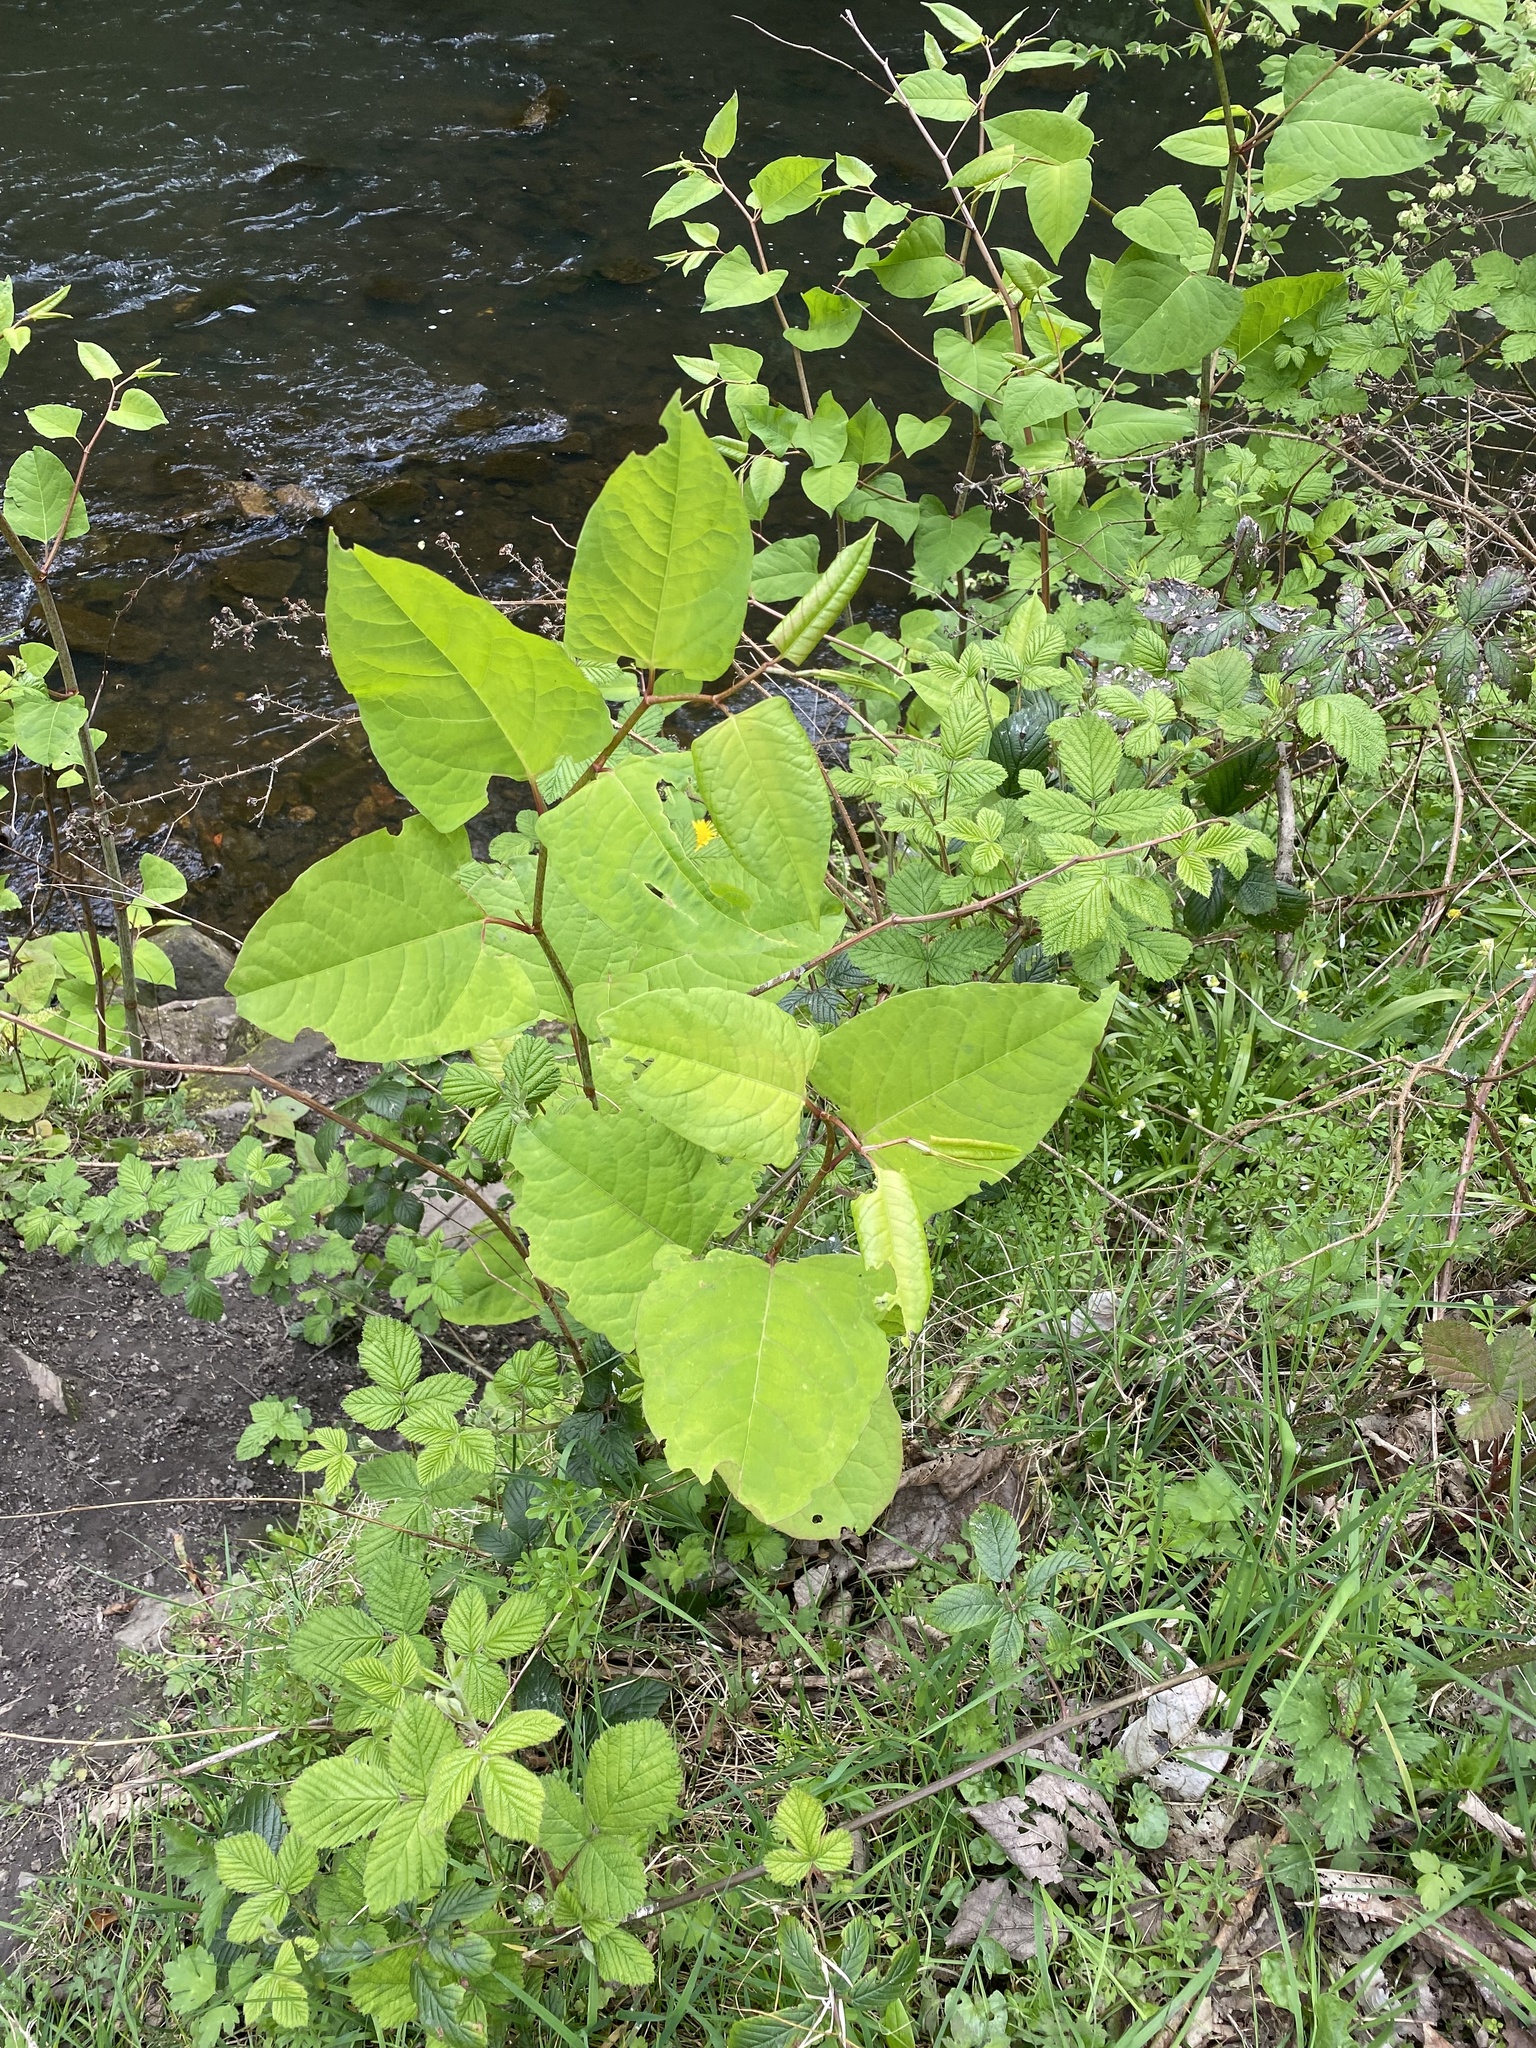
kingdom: Plantae
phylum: Tracheophyta
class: Magnoliopsida
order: Caryophyllales
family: Polygonaceae
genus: Reynoutria
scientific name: Reynoutria japonica
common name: Japanese knotweed
